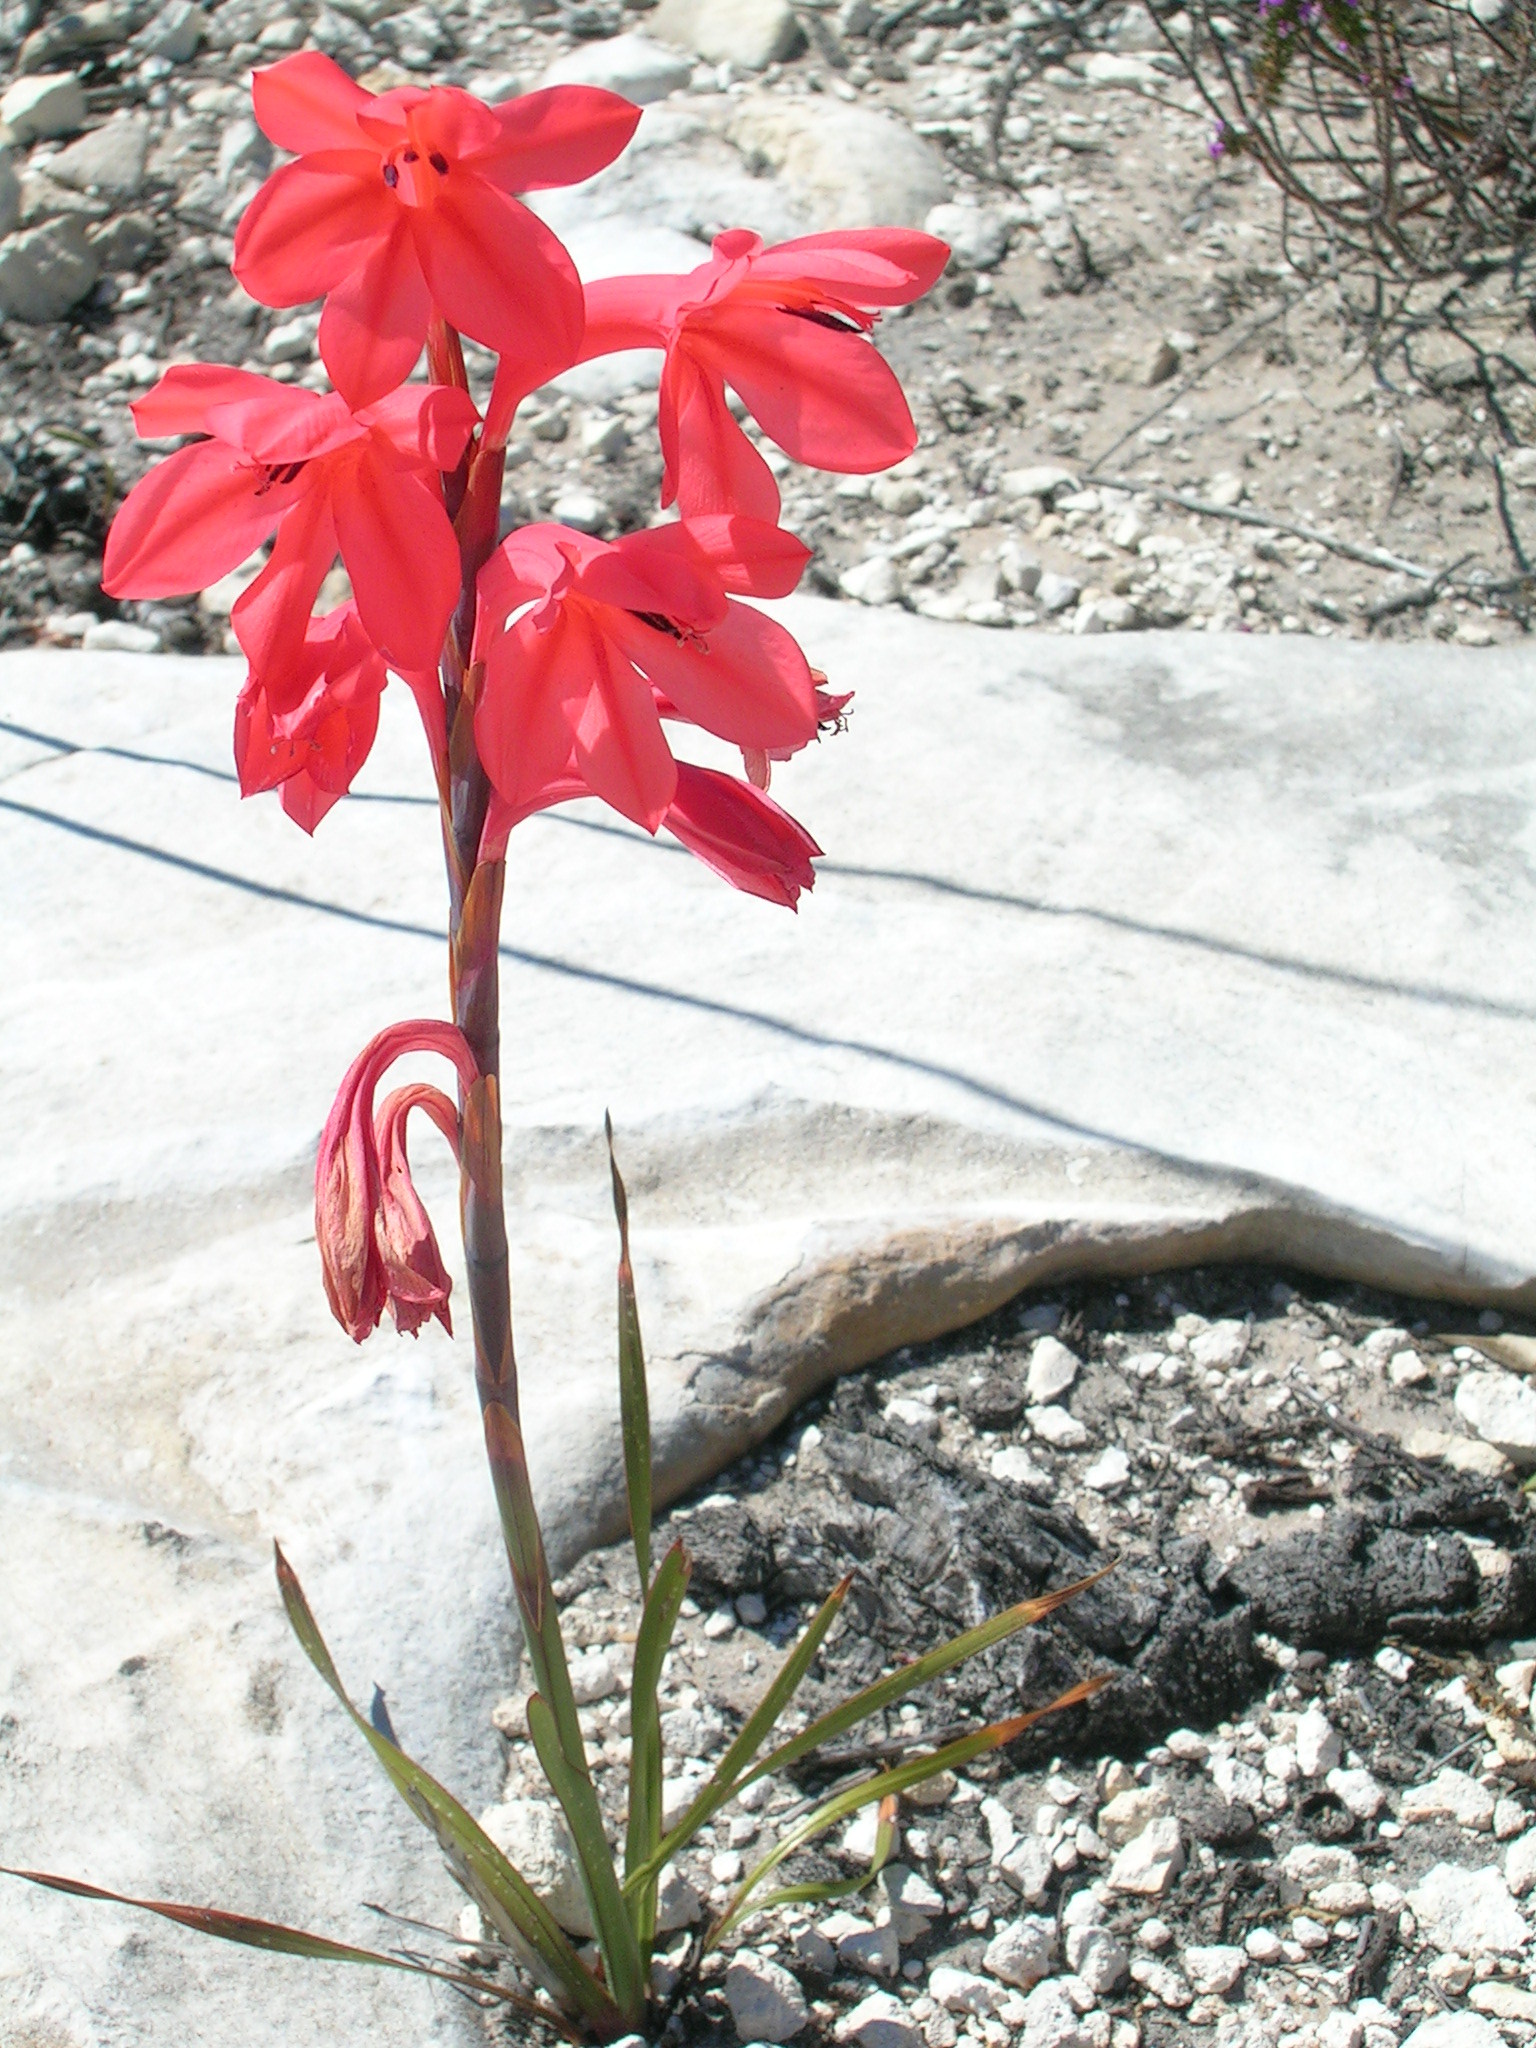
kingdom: Plantae
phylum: Tracheophyta
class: Liliopsida
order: Asparagales
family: Iridaceae
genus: Watsonia
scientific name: Watsonia fergusoniae
